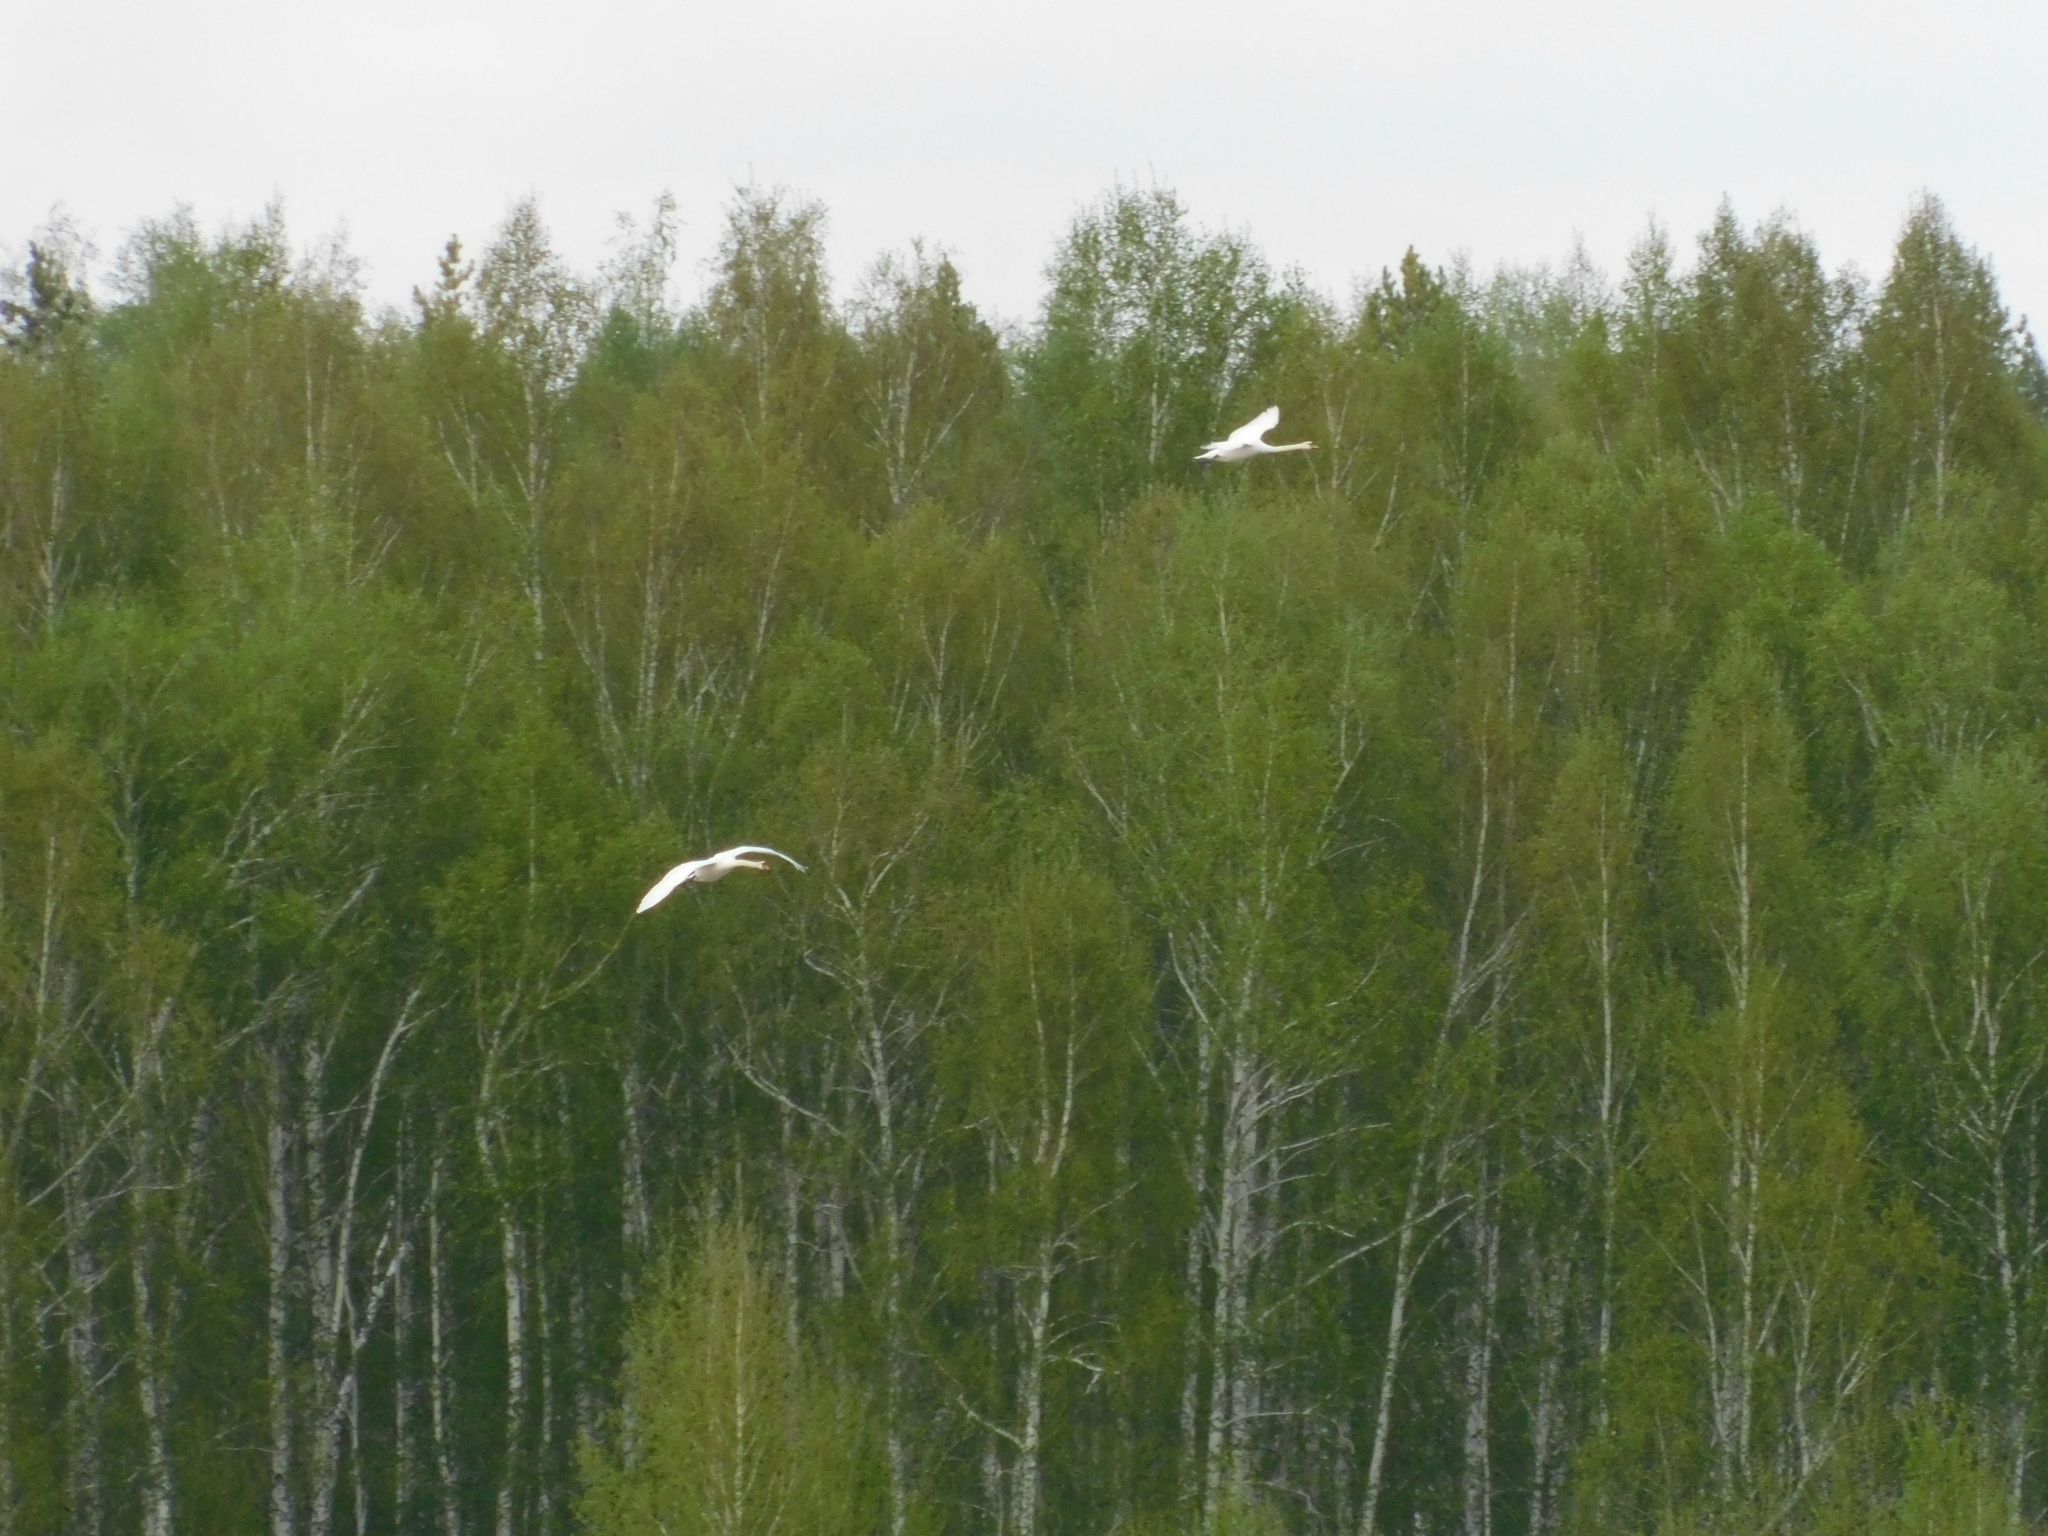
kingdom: Animalia
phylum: Chordata
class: Aves
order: Anseriformes
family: Anatidae
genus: Cygnus
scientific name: Cygnus olor
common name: Mute swan
